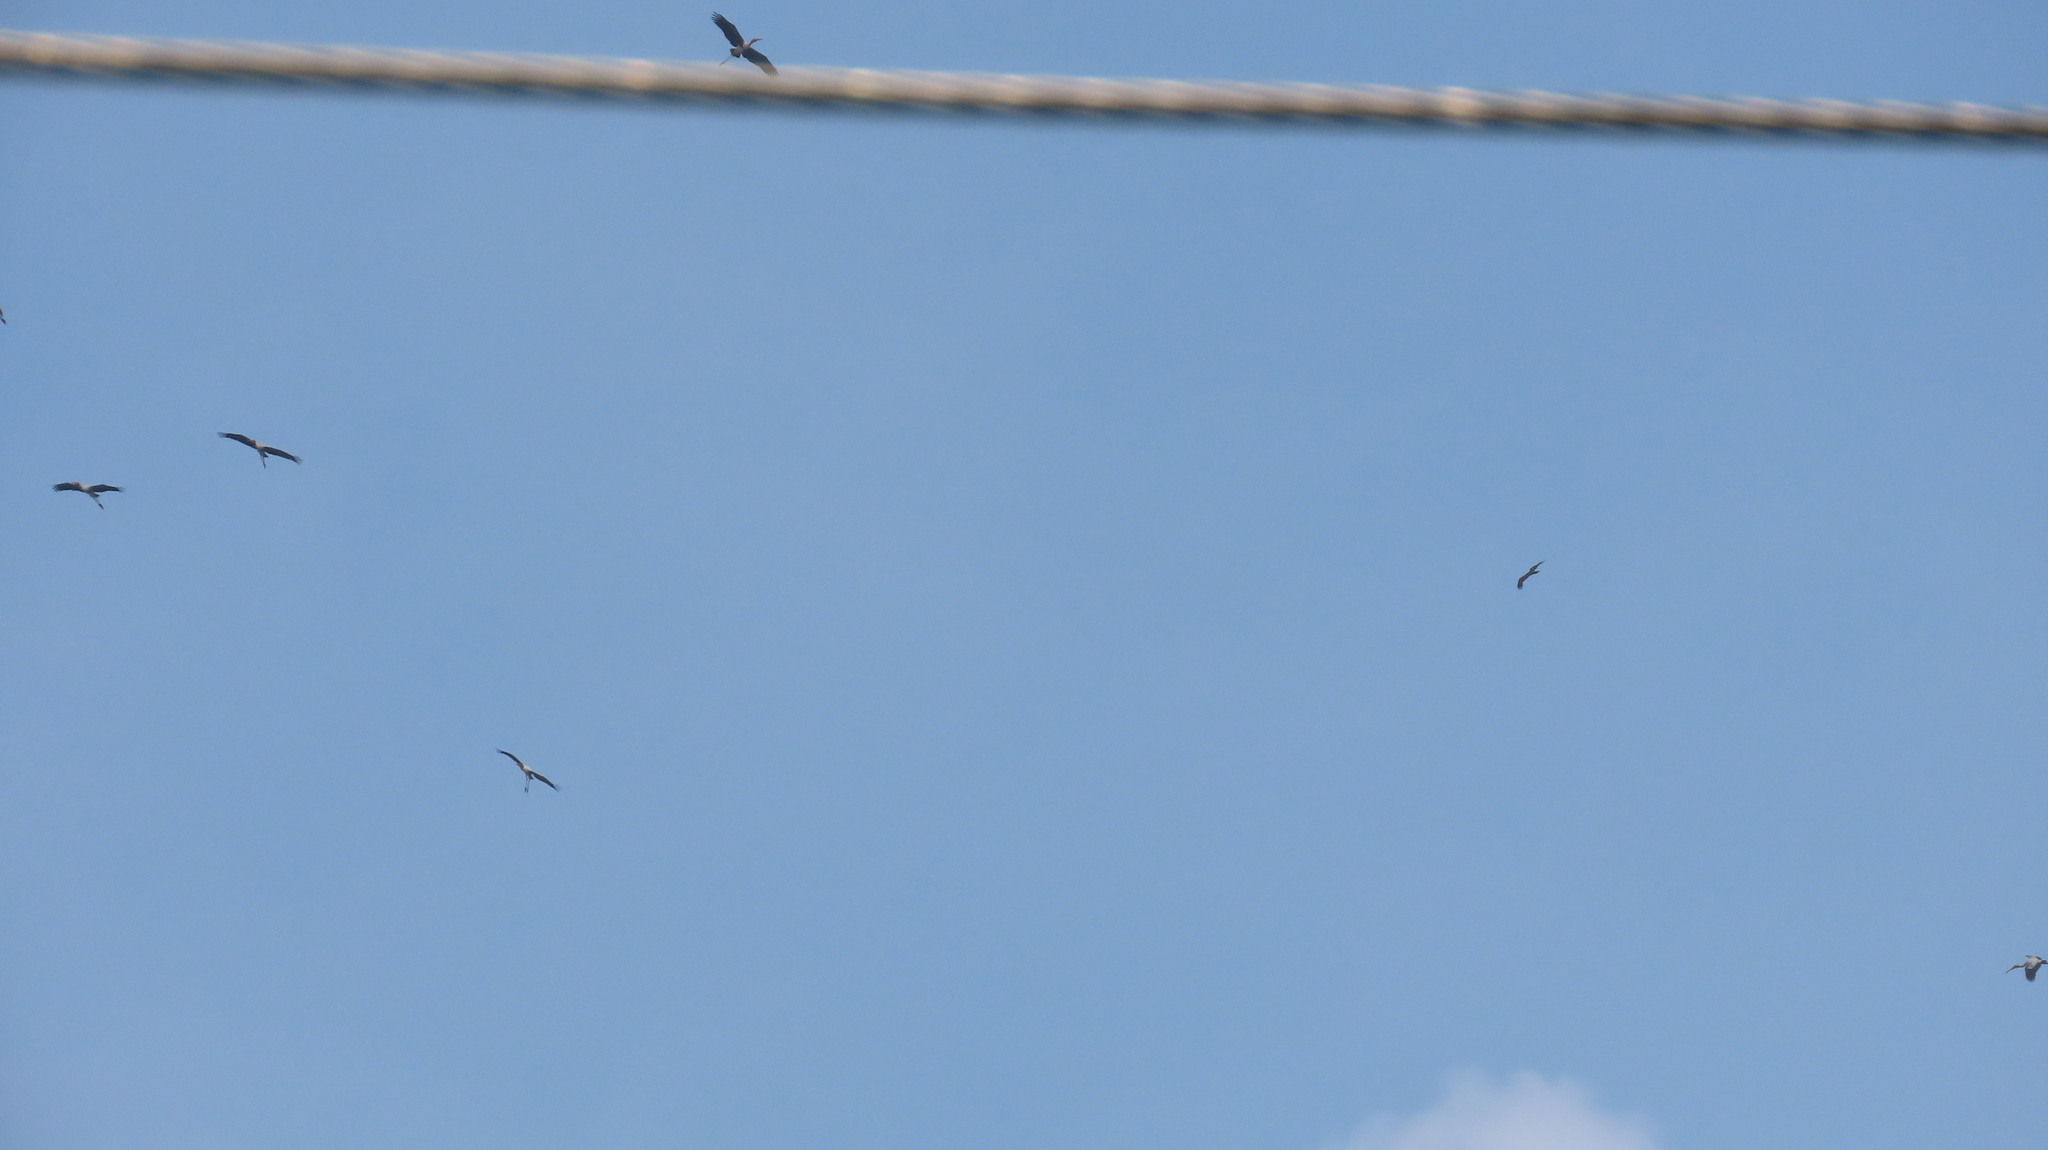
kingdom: Animalia
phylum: Chordata
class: Aves
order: Ciconiiformes
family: Ciconiidae
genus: Mycteria
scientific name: Mycteria leucocephala
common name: Painted stork
